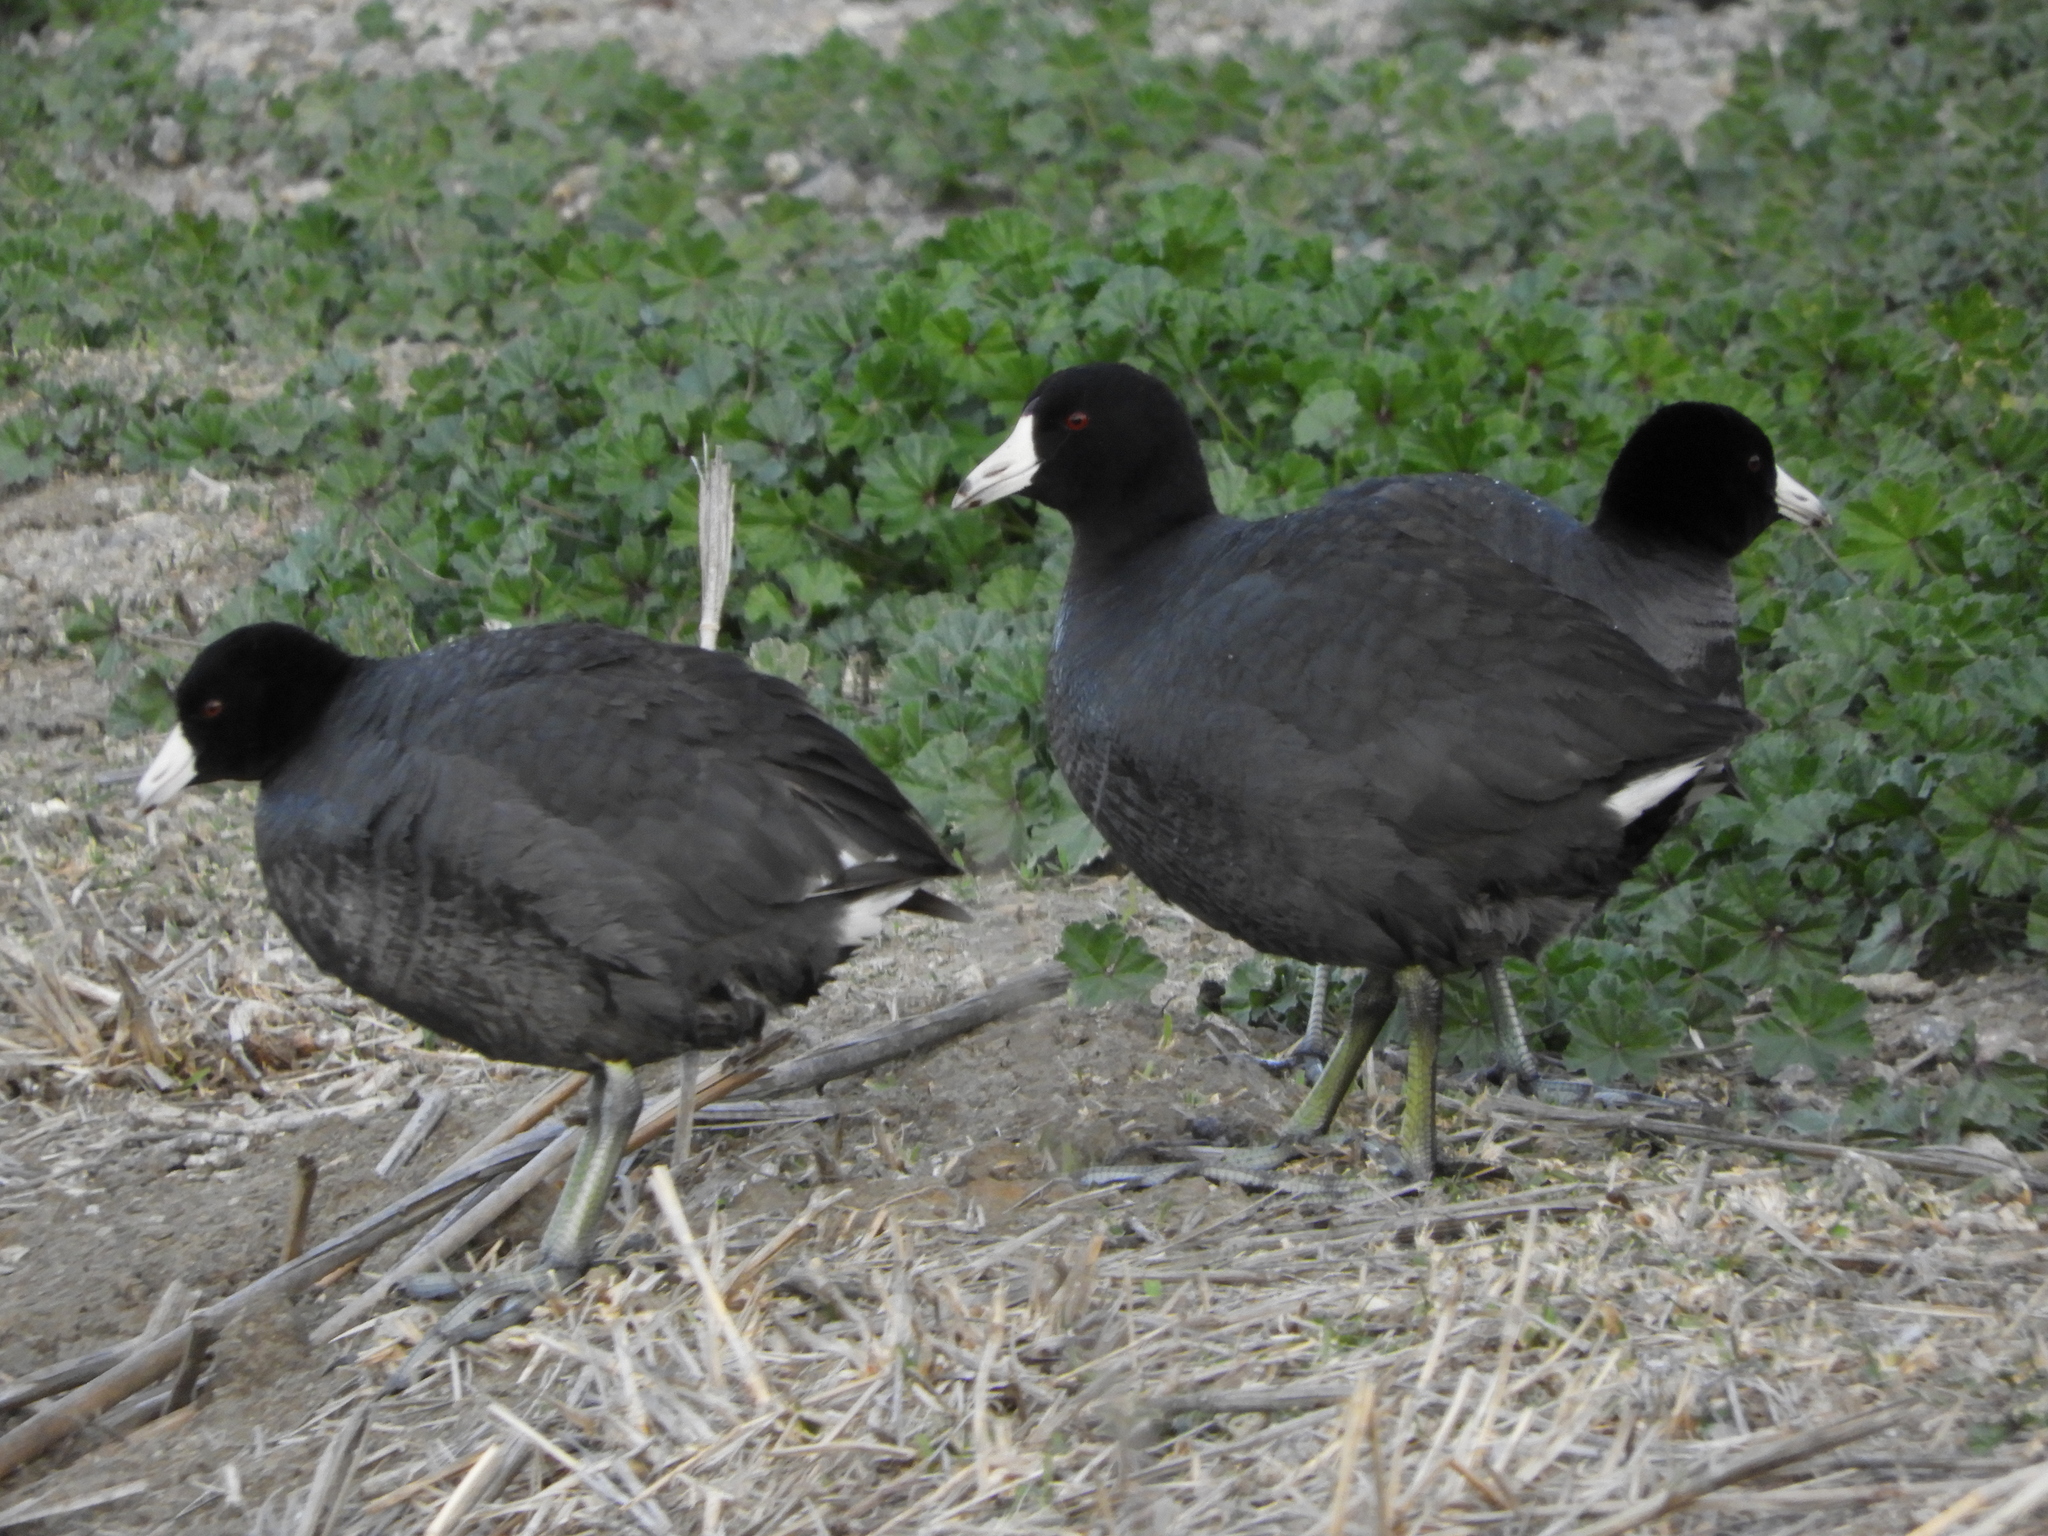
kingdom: Animalia
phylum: Chordata
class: Aves
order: Gruiformes
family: Rallidae
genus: Fulica
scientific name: Fulica americana
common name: American coot
